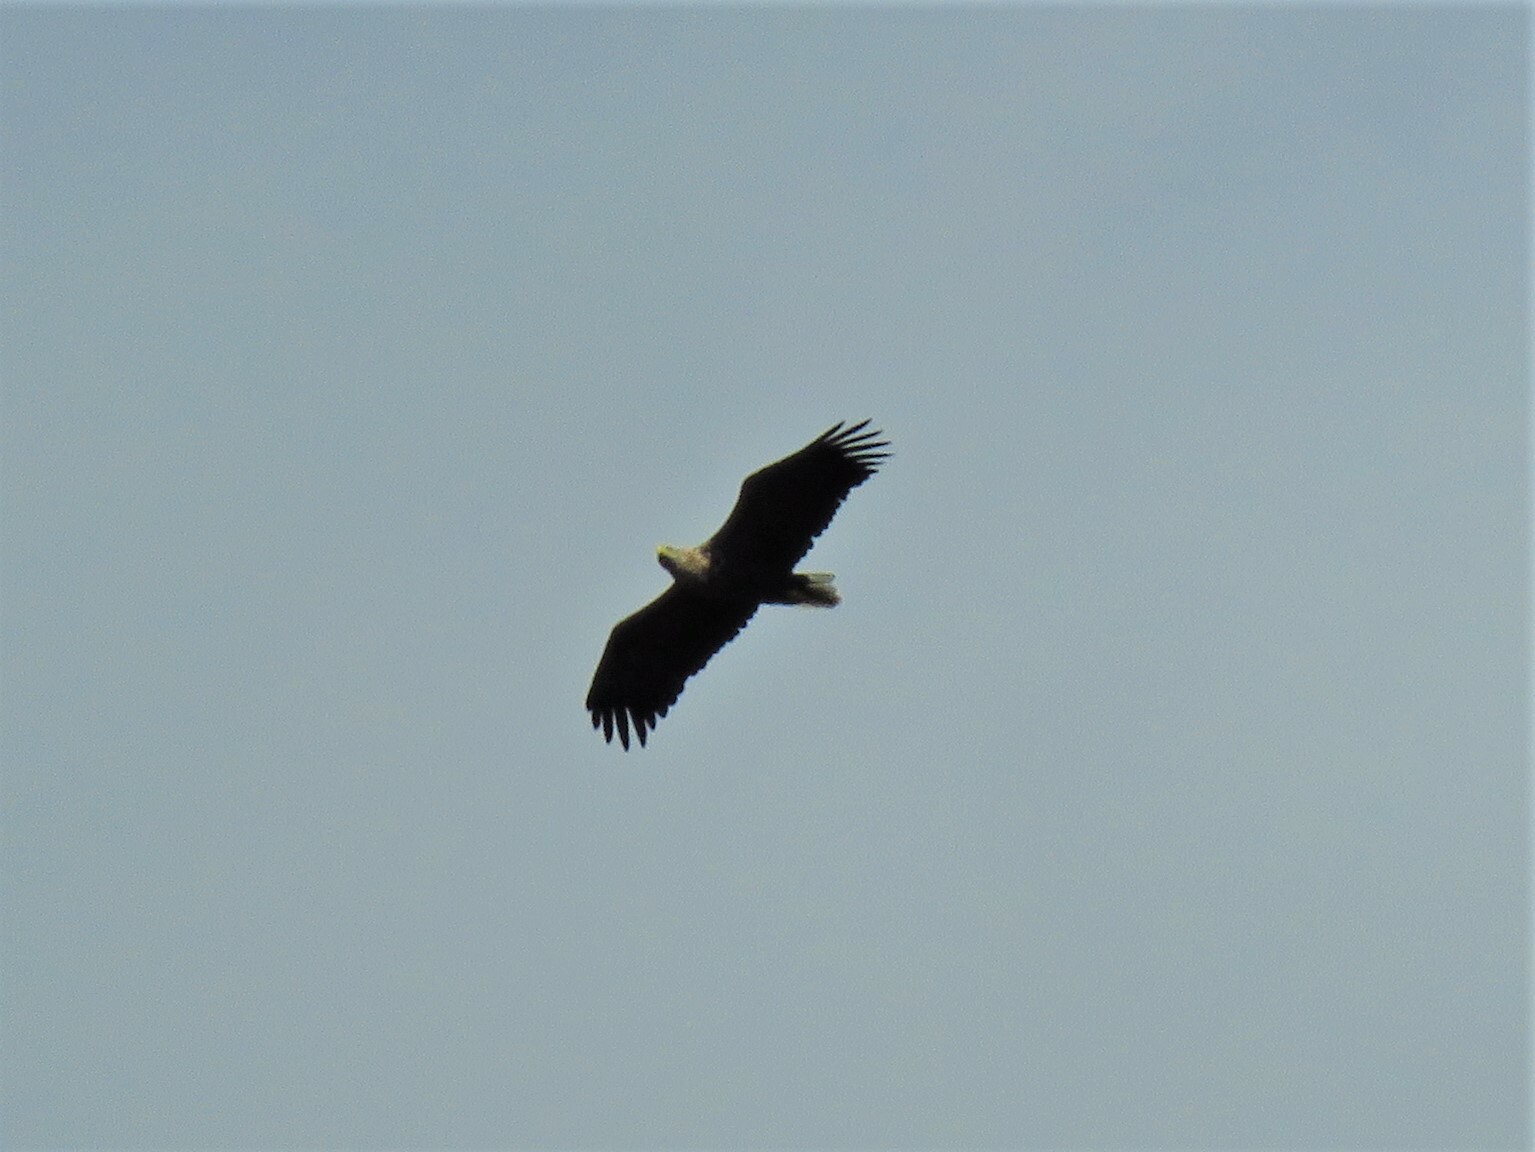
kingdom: Animalia
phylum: Chordata
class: Aves
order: Accipitriformes
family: Accipitridae
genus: Haliaeetus
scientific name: Haliaeetus albicilla
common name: White-tailed eagle
